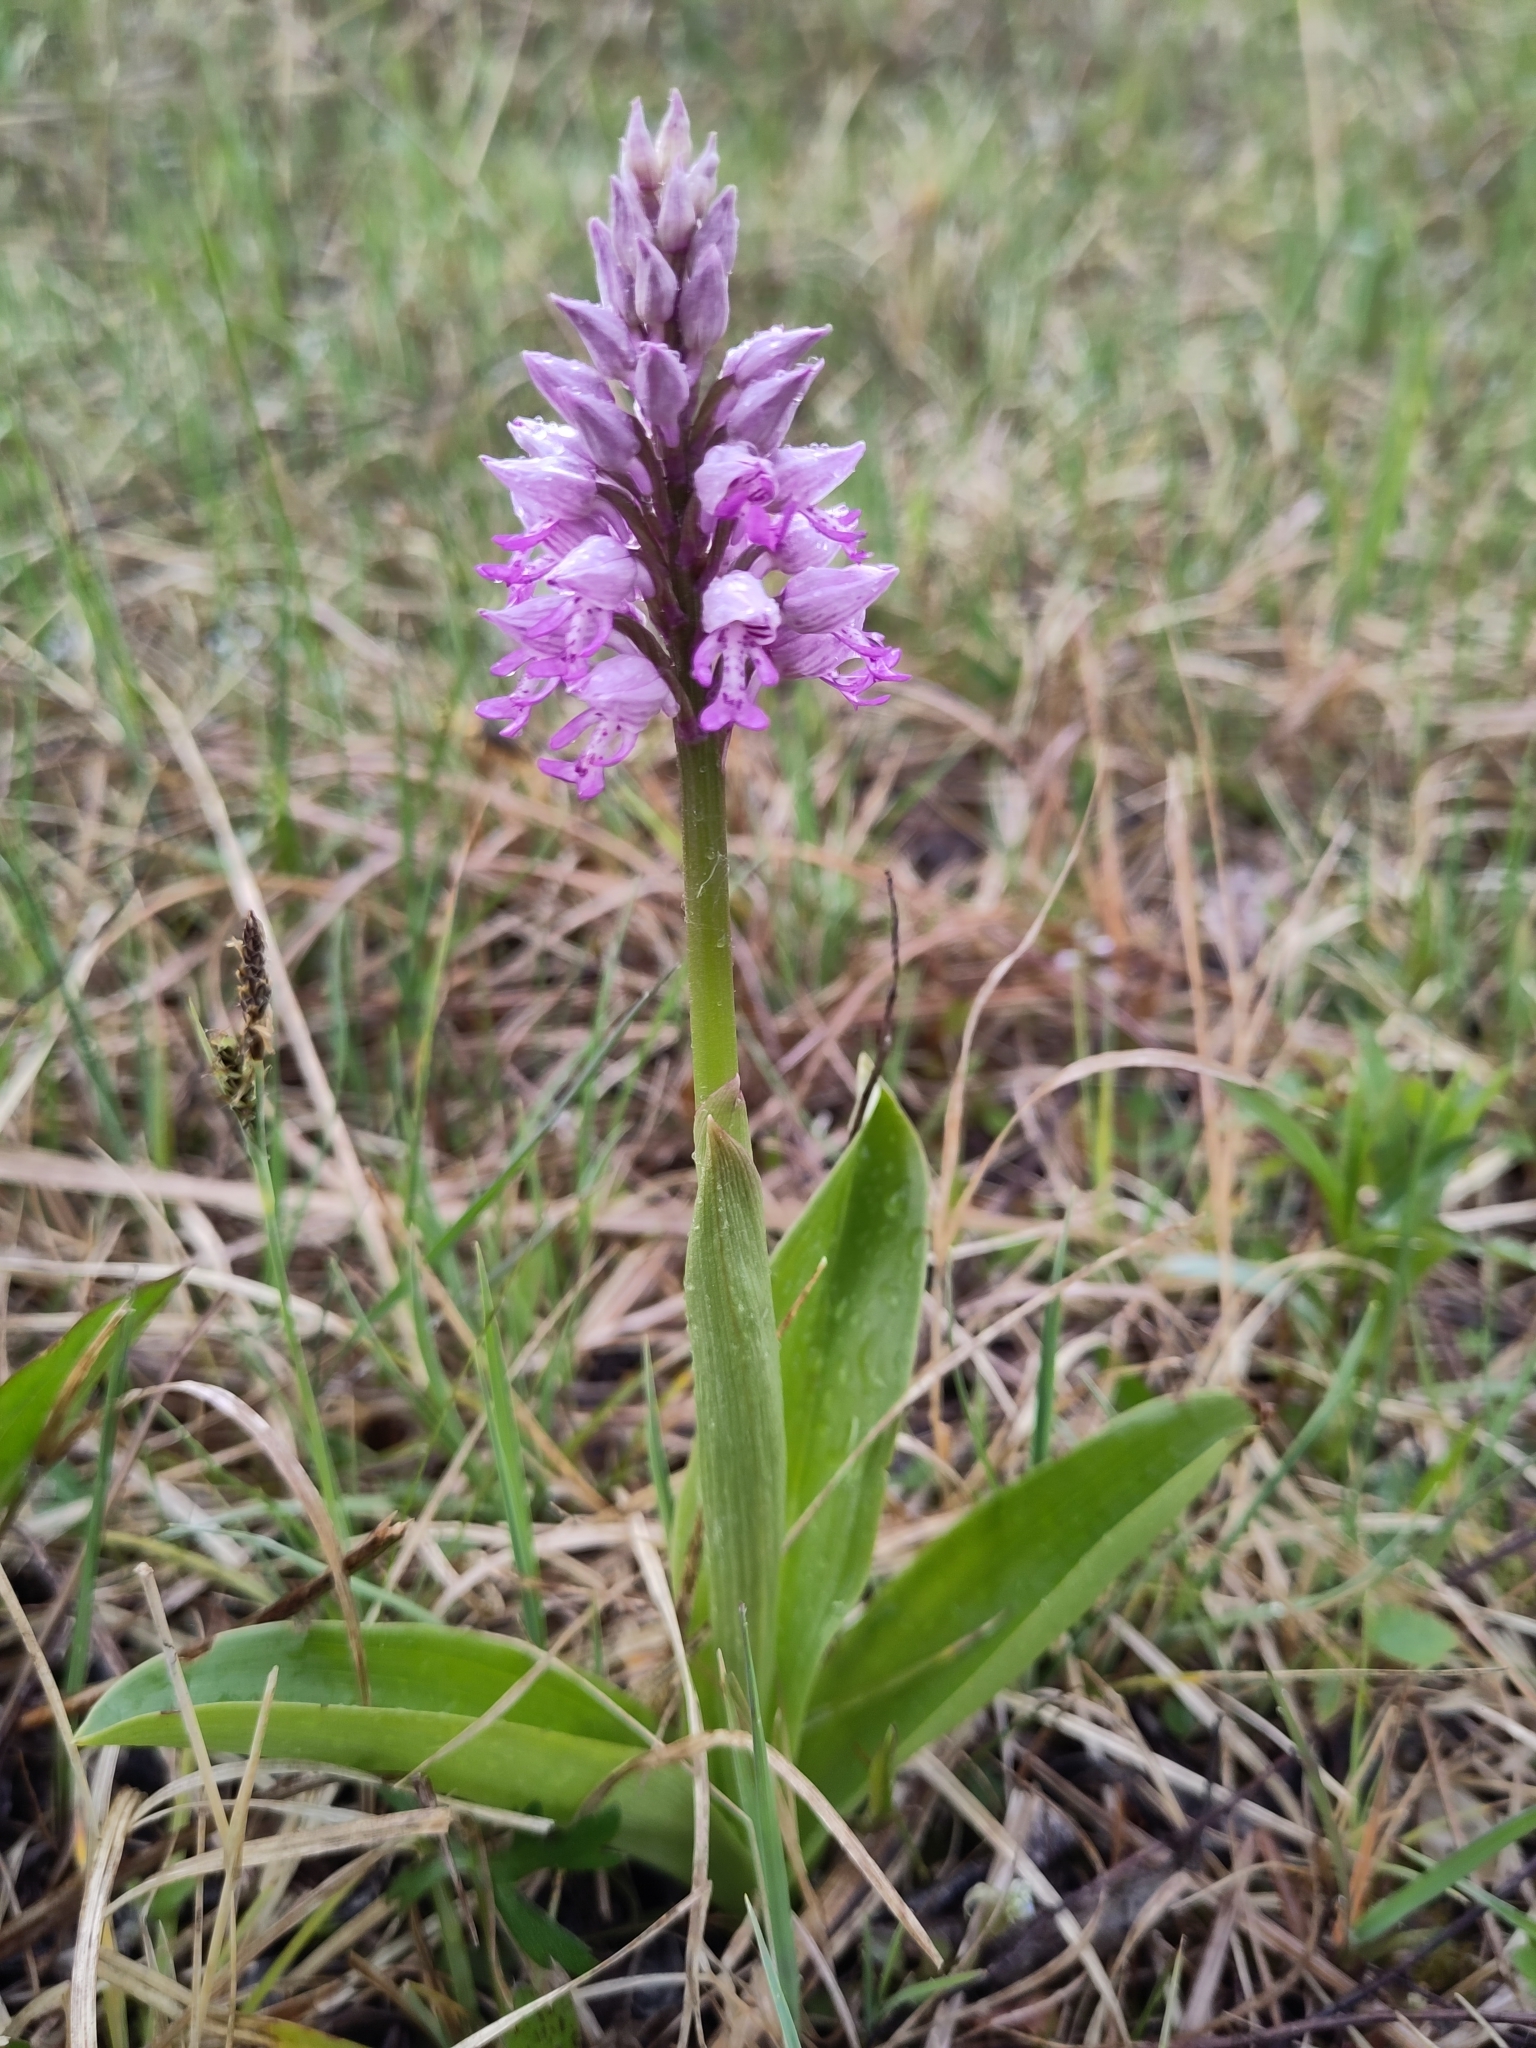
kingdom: Plantae
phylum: Tracheophyta
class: Liliopsida
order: Asparagales
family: Orchidaceae
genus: Orchis
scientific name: Orchis militaris
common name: Military orchid
